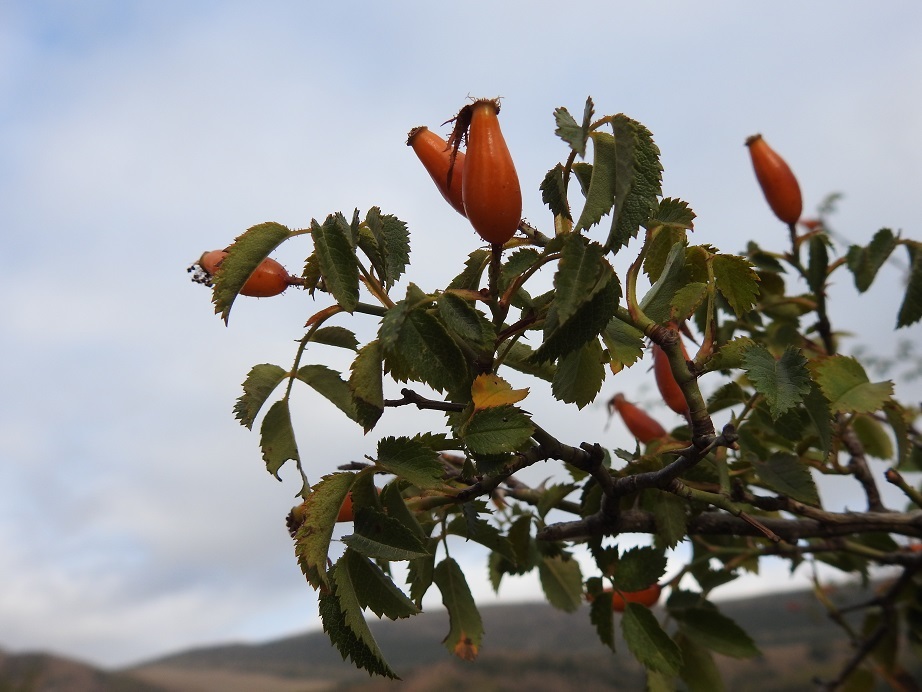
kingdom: Plantae
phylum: Tracheophyta
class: Magnoliopsida
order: Rosales
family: Rosaceae
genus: Rosa
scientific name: Rosa pouzinii
